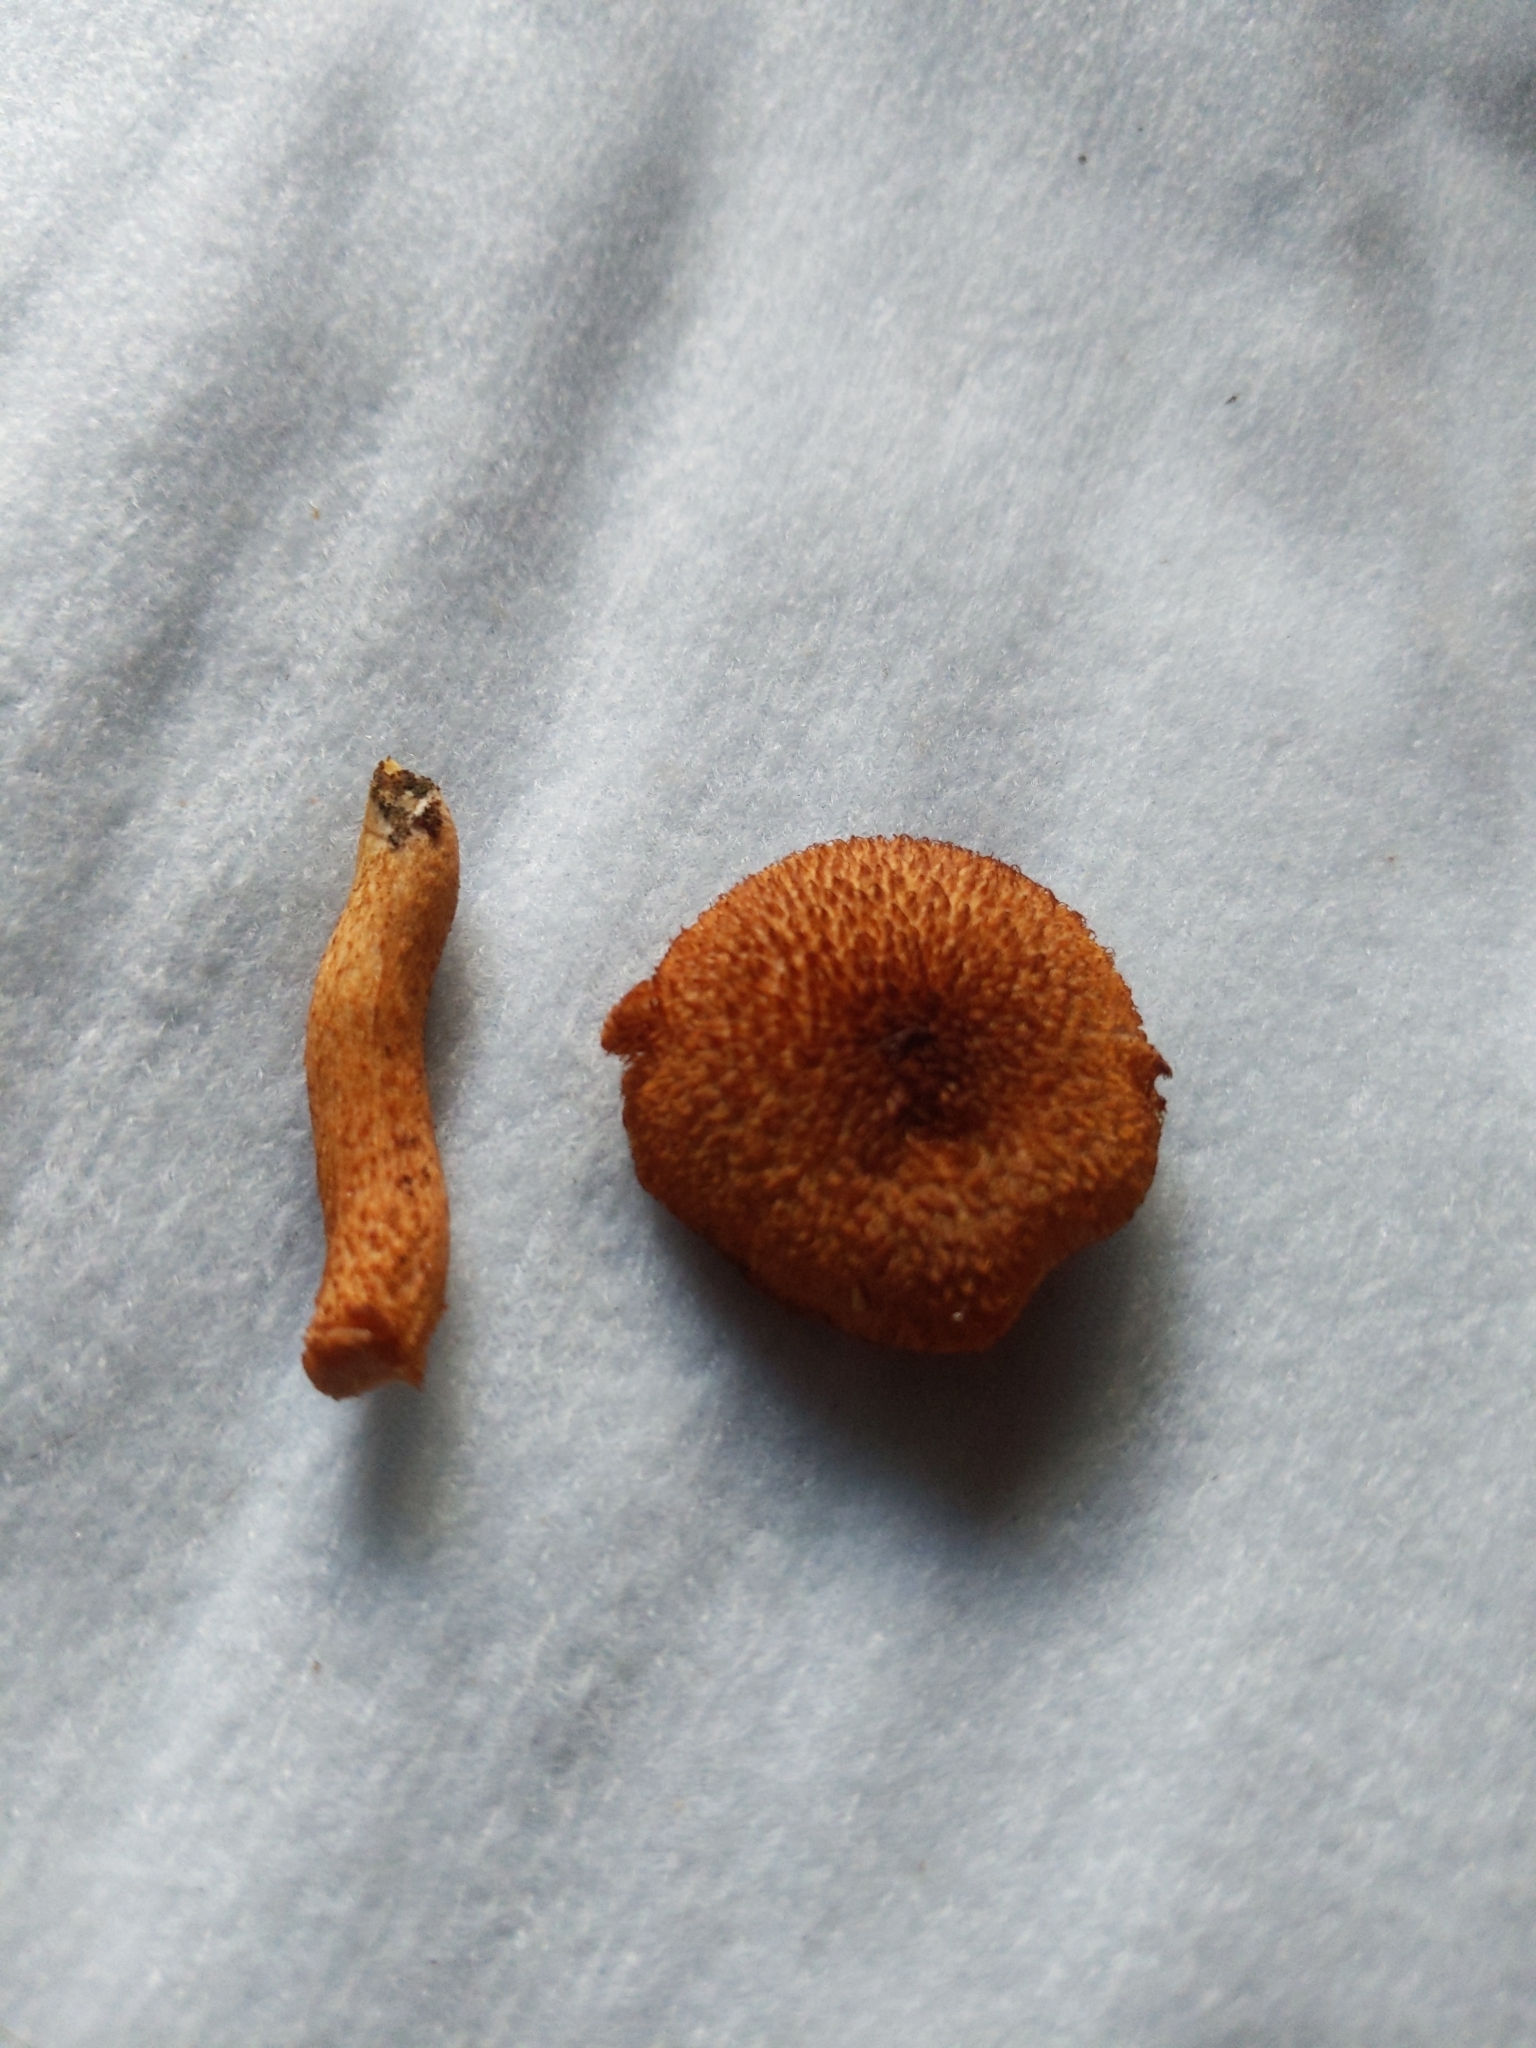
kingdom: Fungi
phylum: Basidiomycota
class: Agaricomycetes
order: Agaricales
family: Tricholomataceae
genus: Tricholomopsis
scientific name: Tricholomopsis formosa
